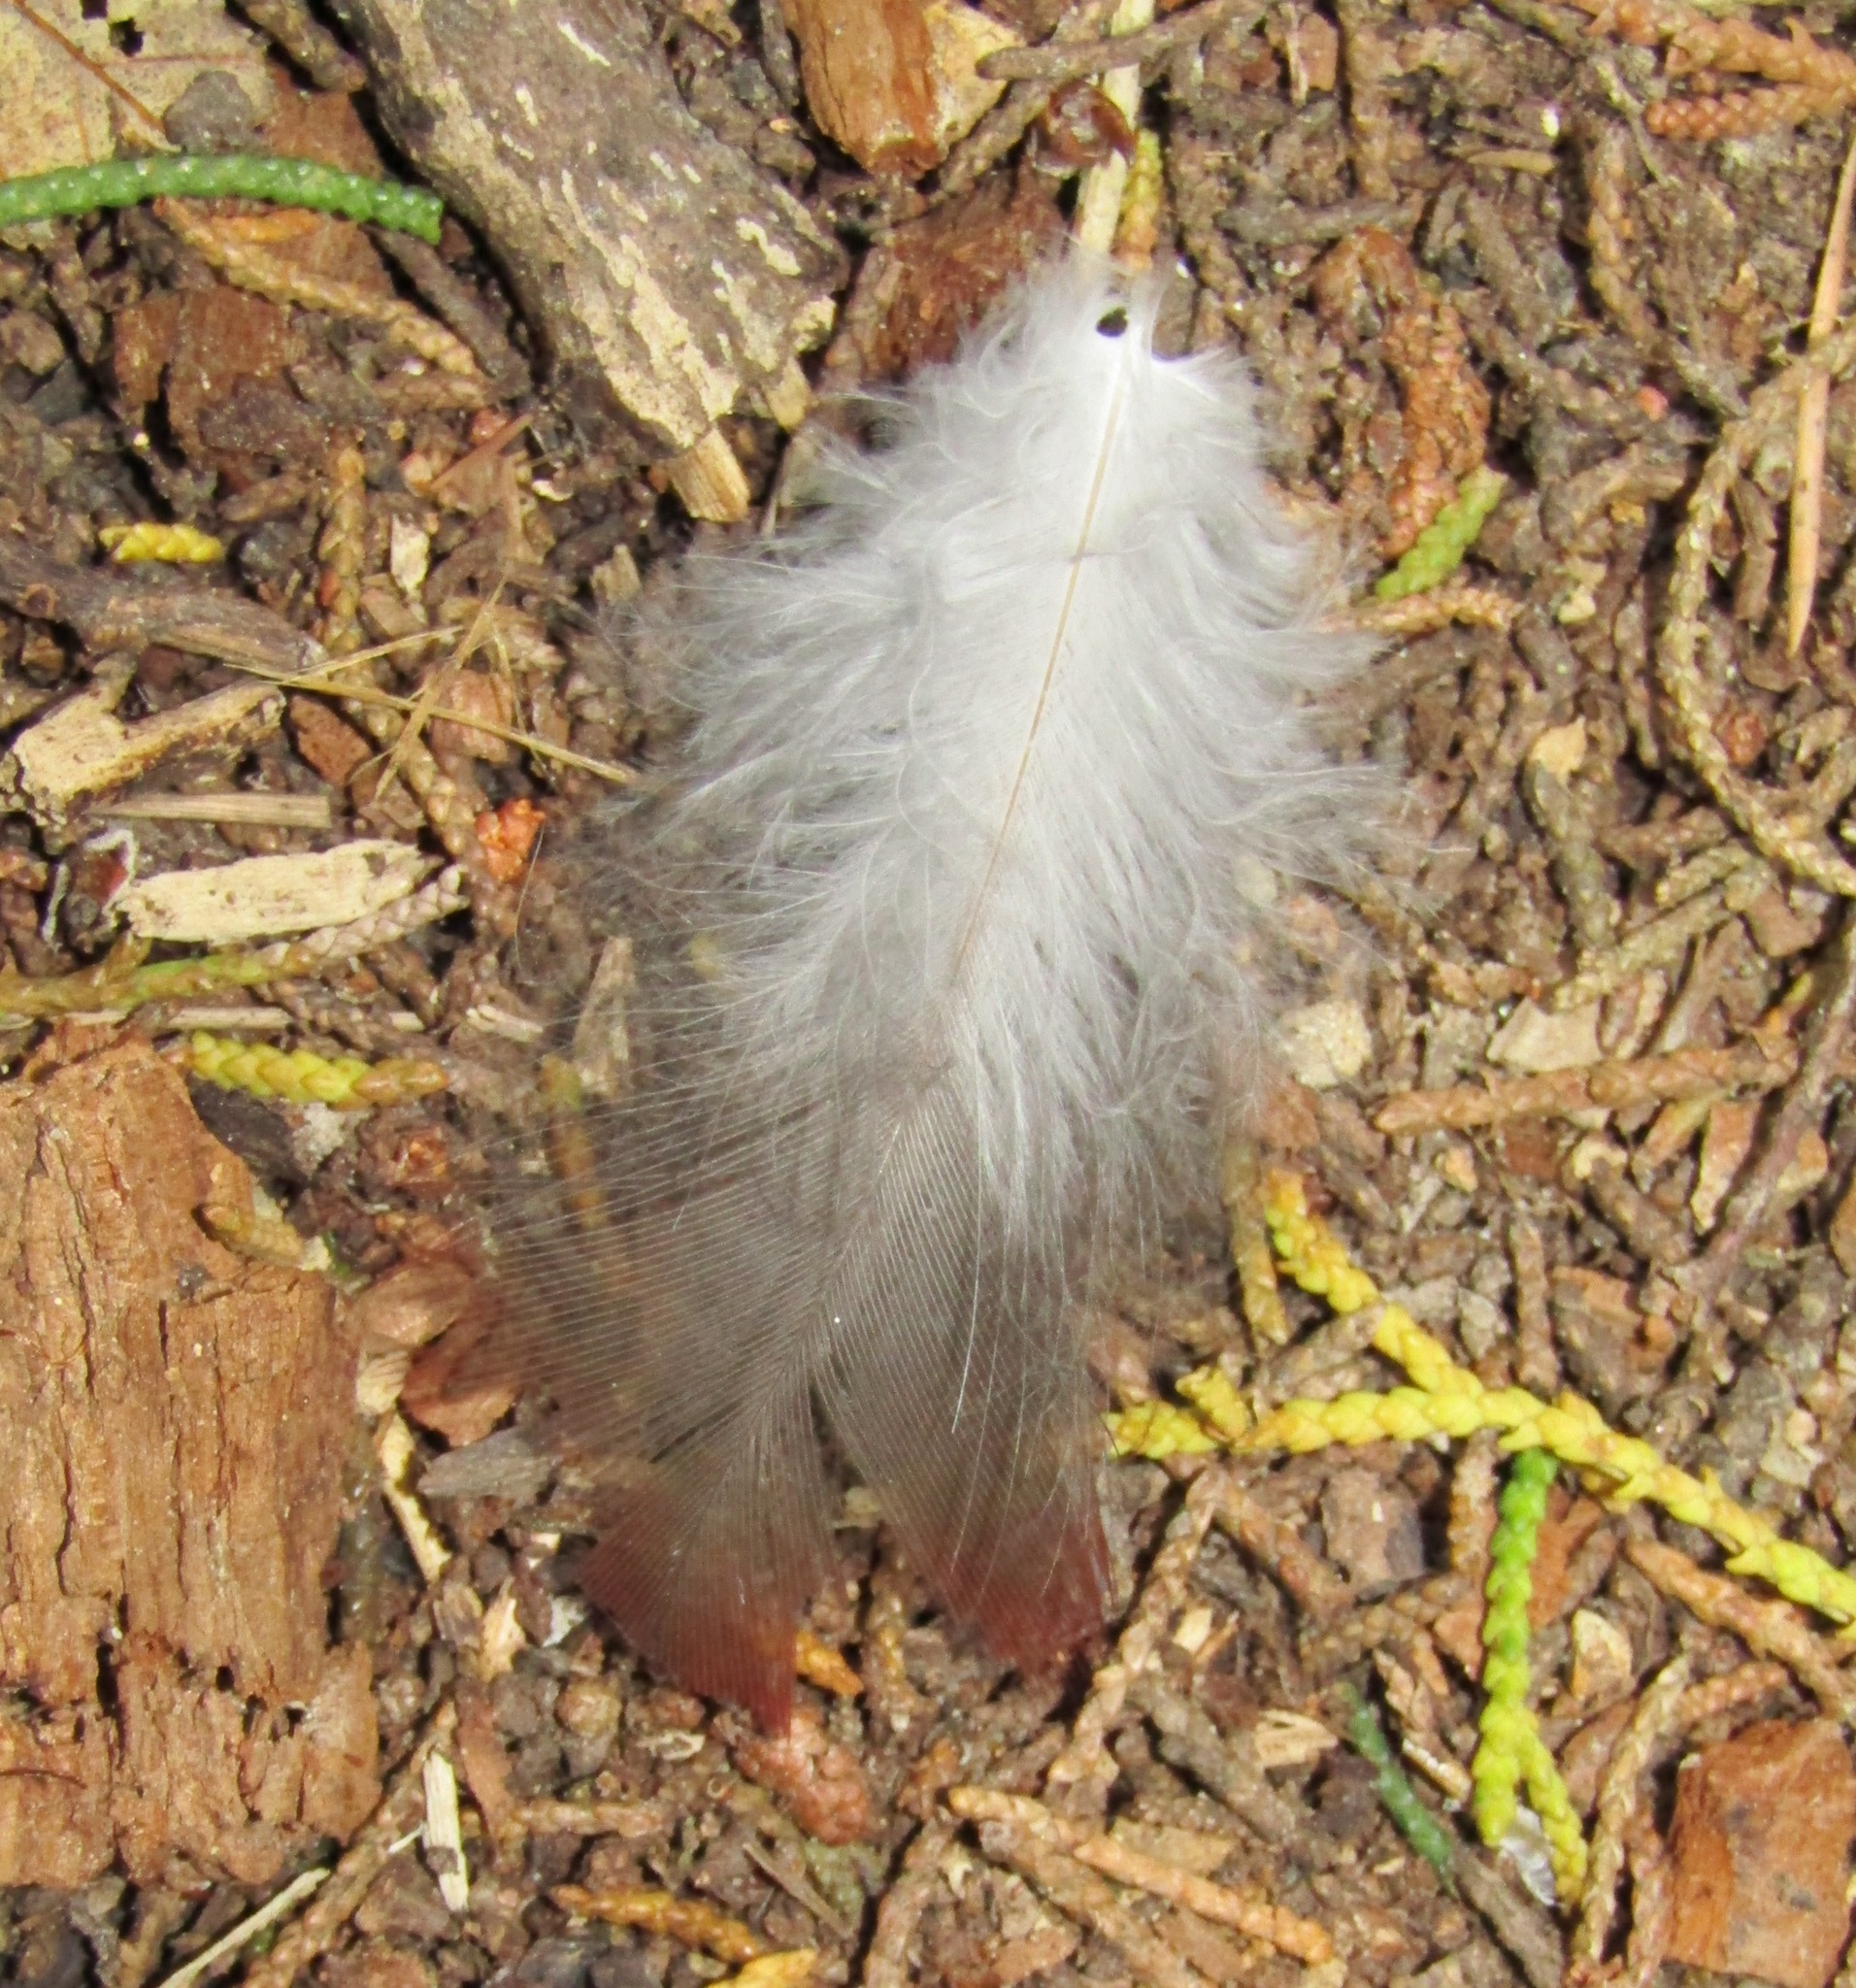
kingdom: Animalia
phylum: Chordata
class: Aves
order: Psittaciformes
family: Psittacidae
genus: Nestor
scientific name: Nestor meridionalis
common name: New zealand kaka
